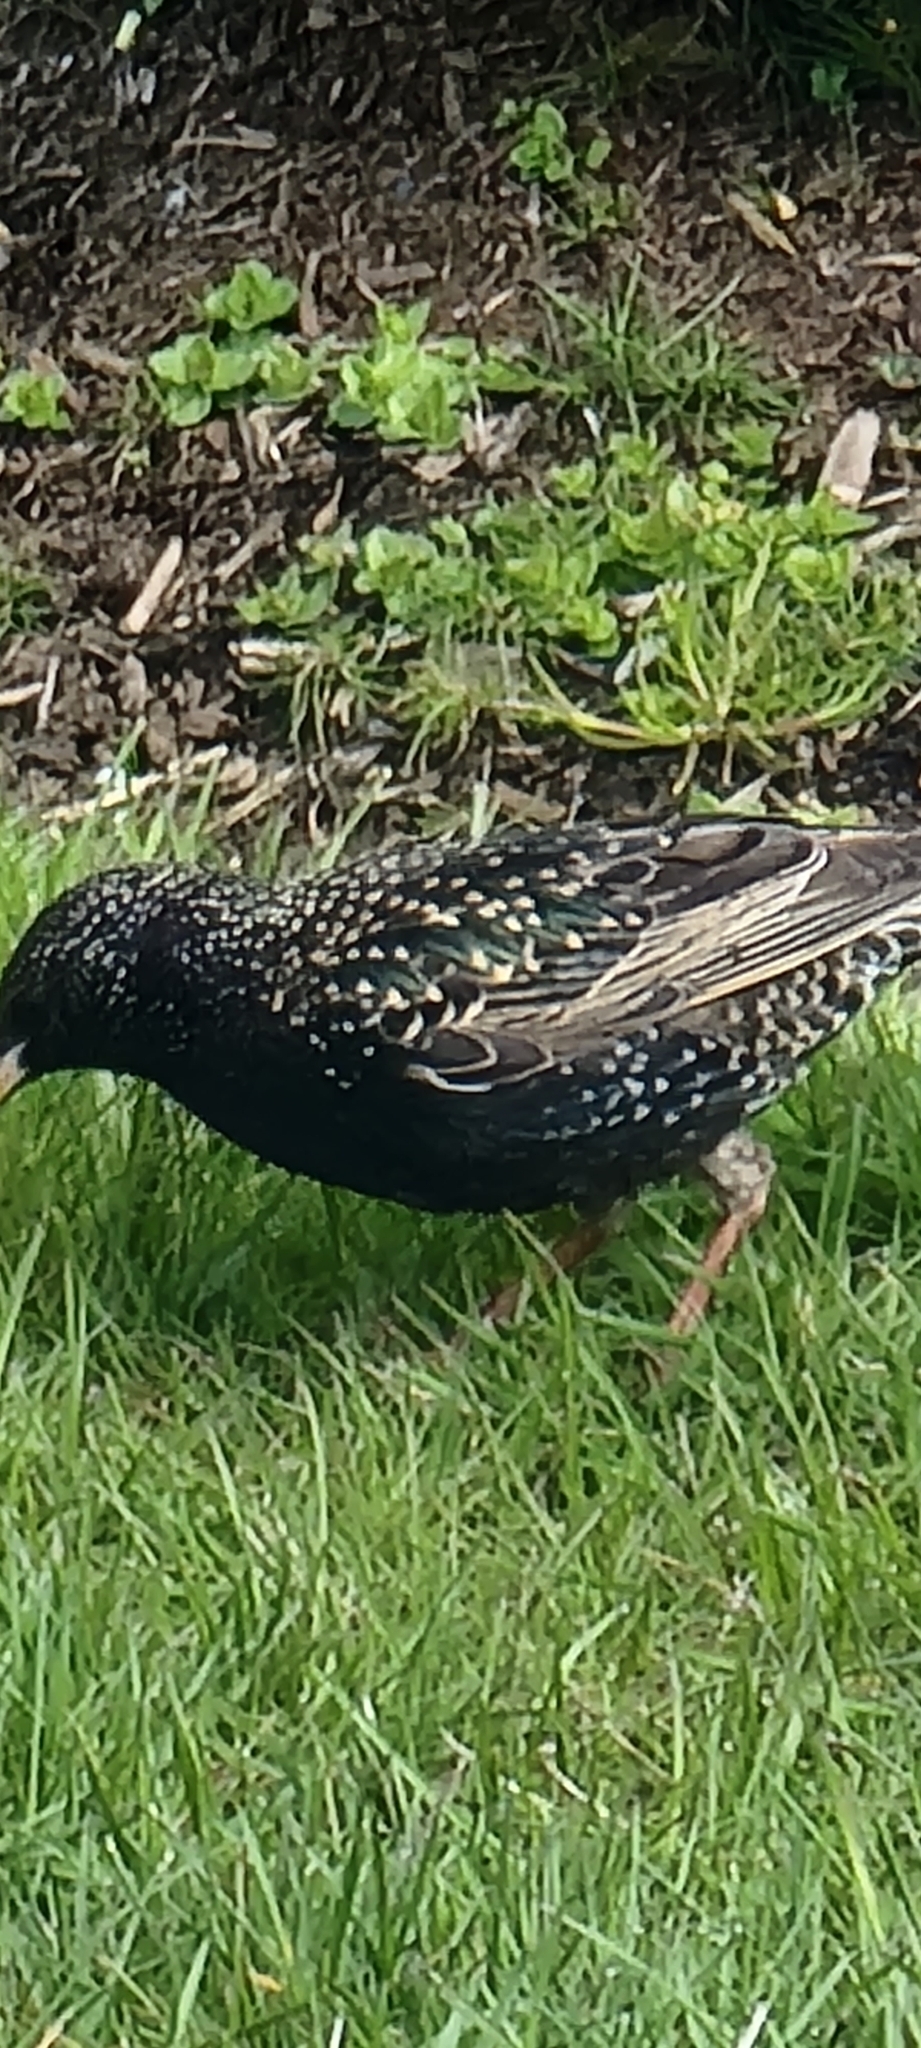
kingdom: Animalia
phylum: Chordata
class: Aves
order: Passeriformes
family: Sturnidae
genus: Sturnus
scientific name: Sturnus vulgaris
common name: Common starling
